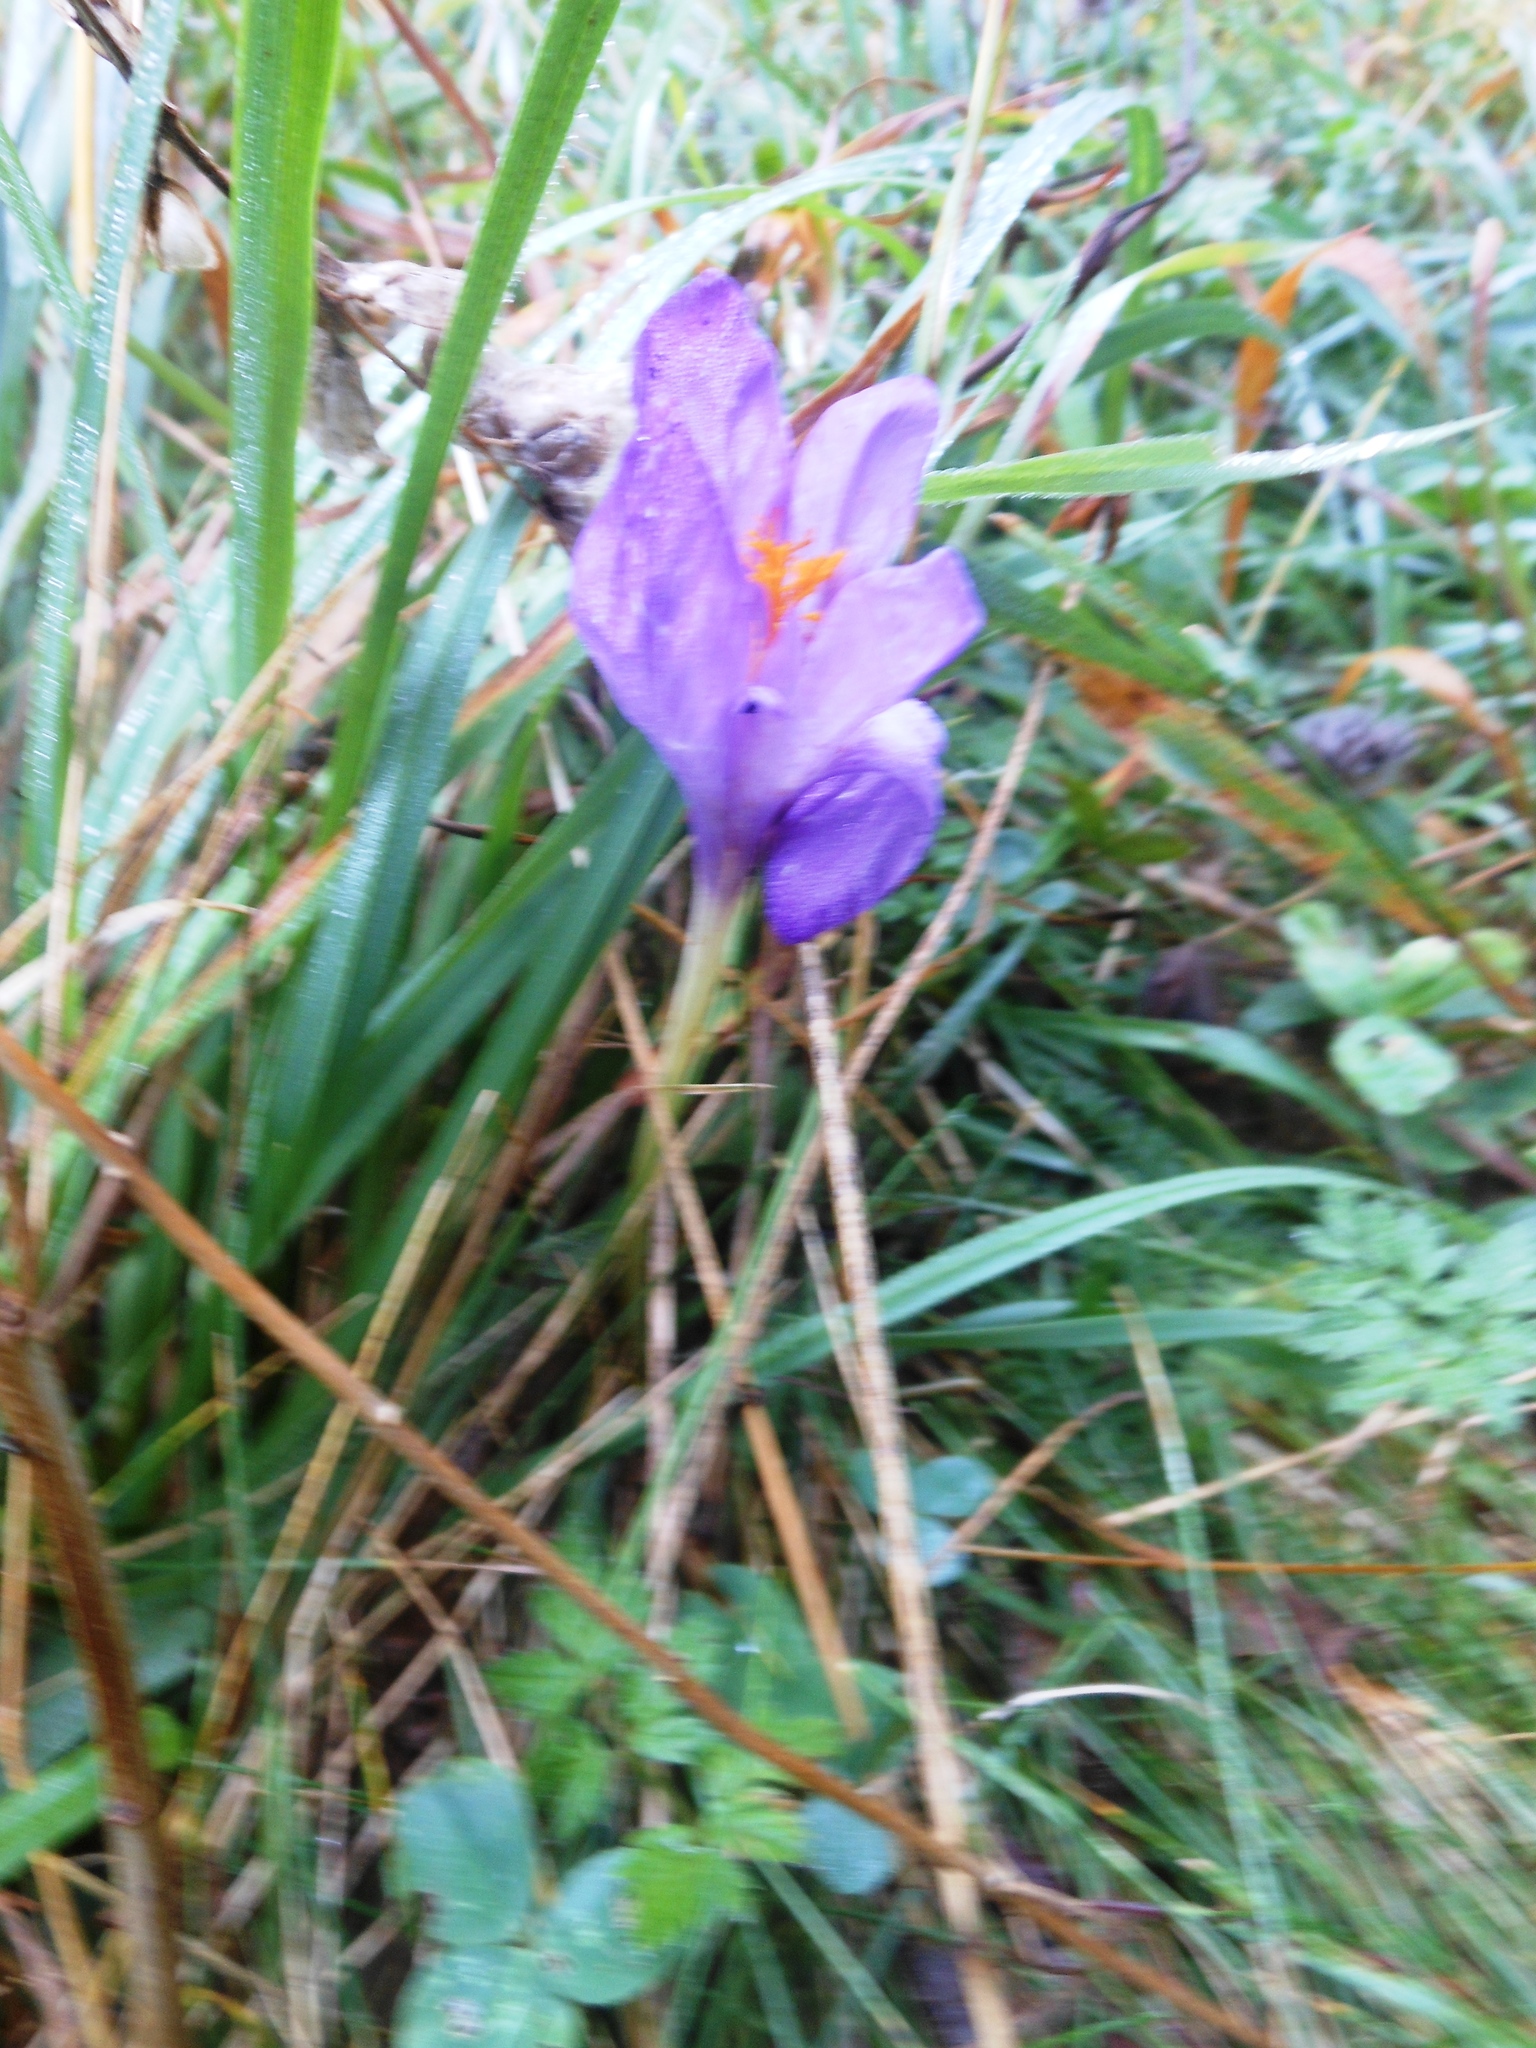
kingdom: Plantae
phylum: Tracheophyta
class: Liliopsida
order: Asparagales
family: Iridaceae
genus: Crocus
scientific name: Crocus nudiflorus
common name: Autumn crocus
